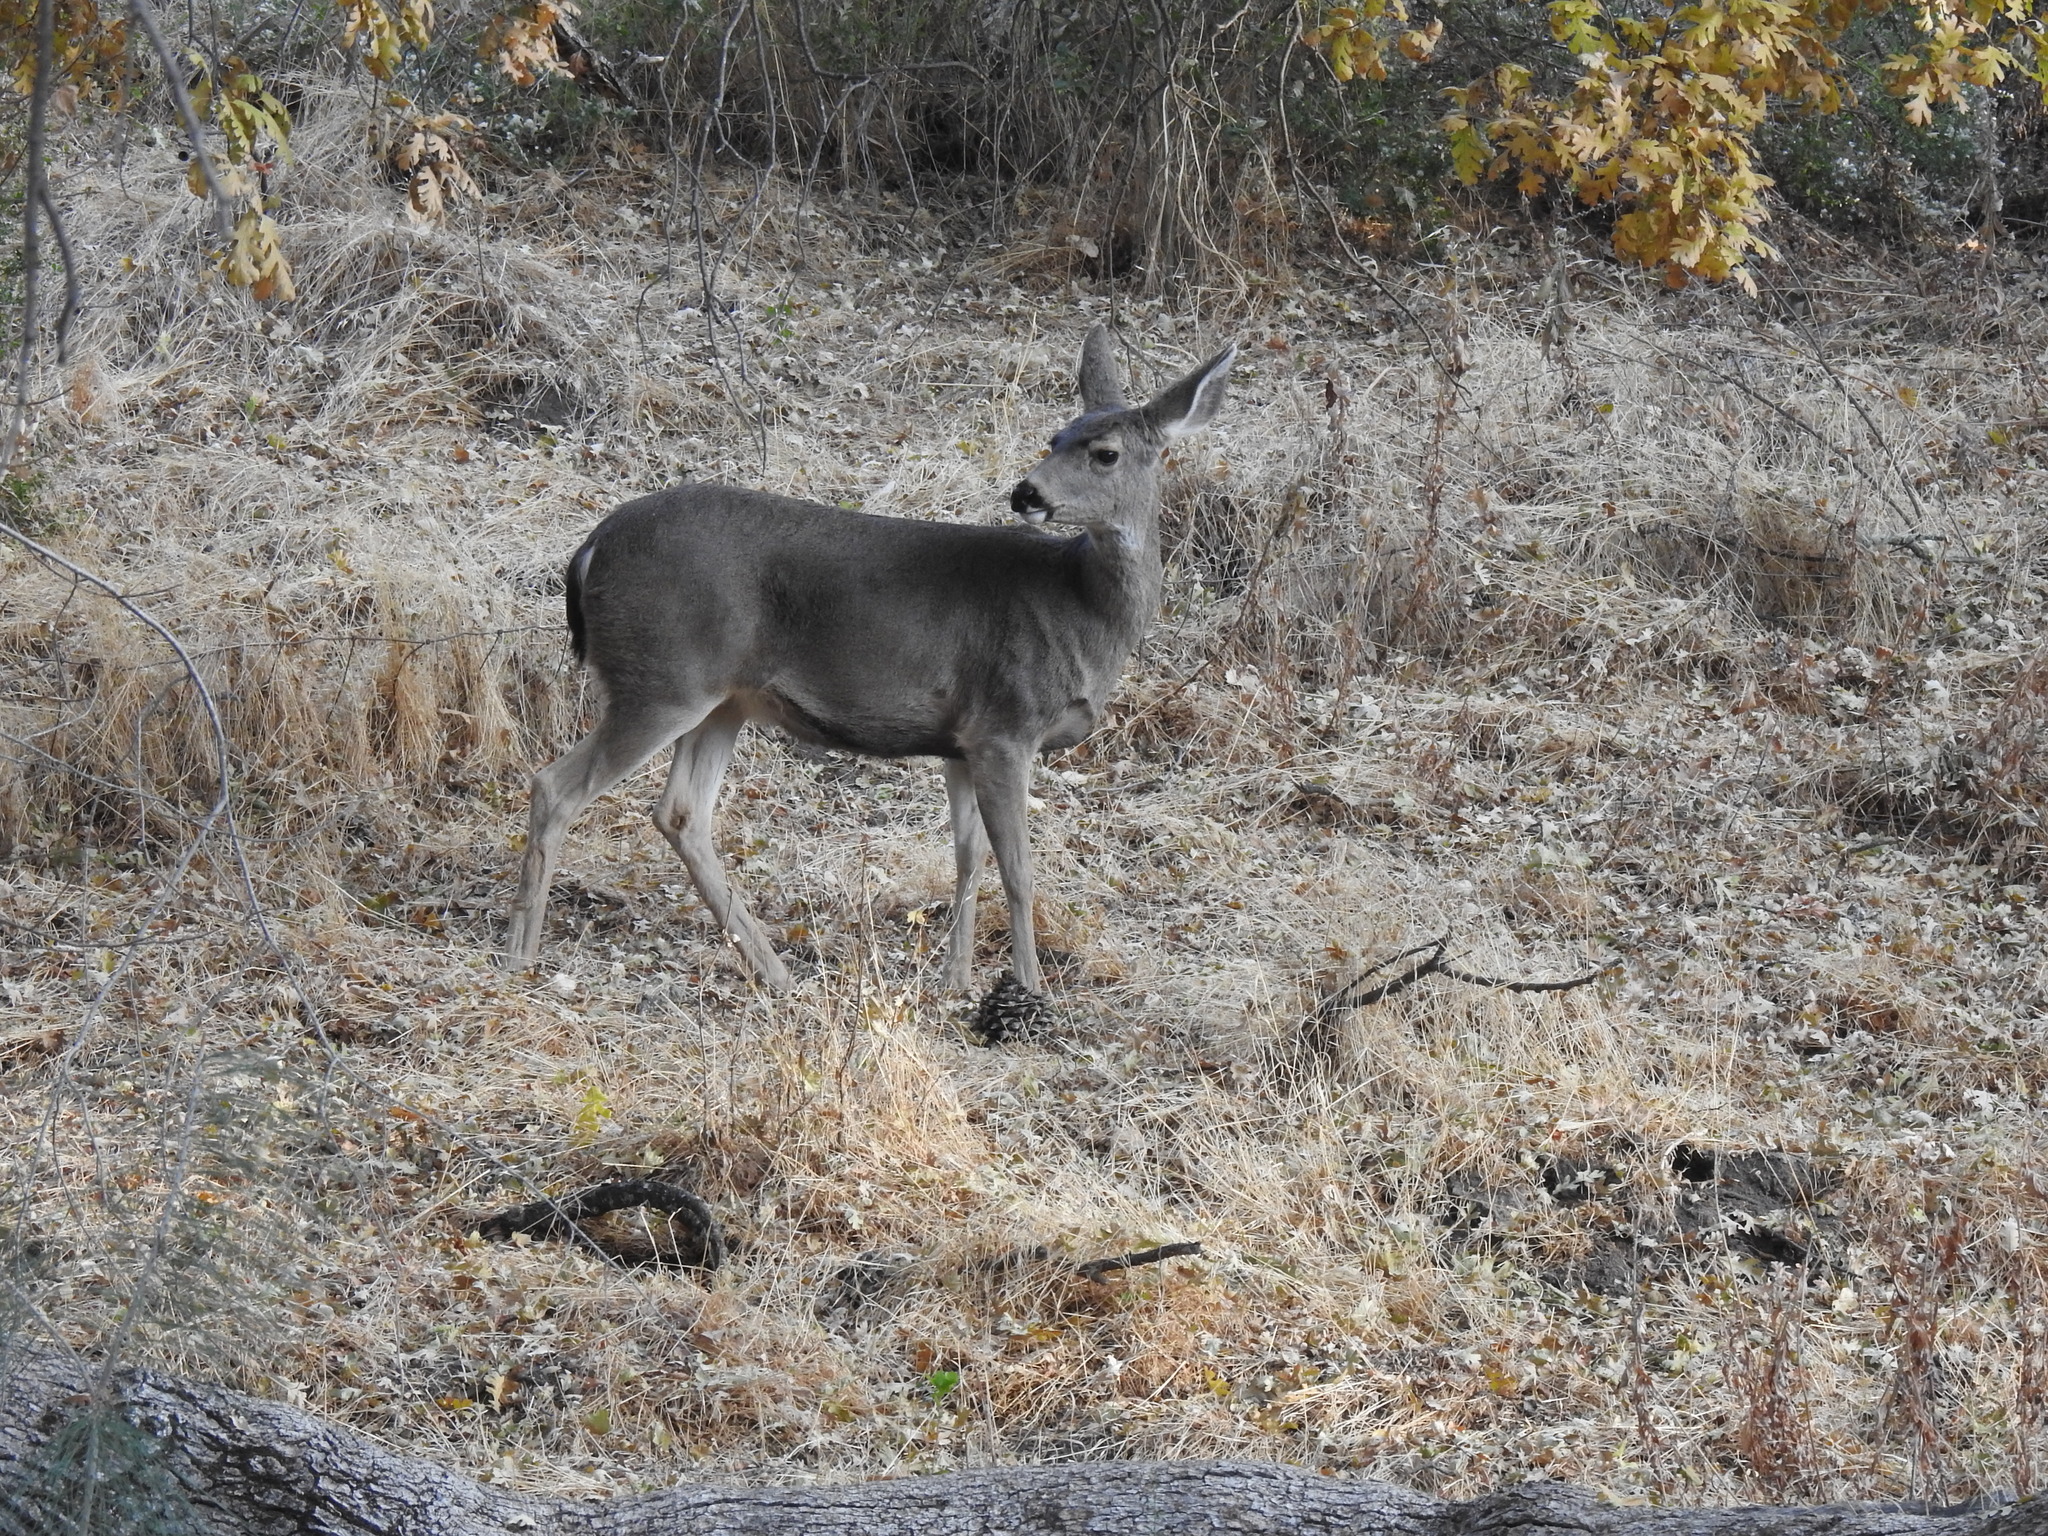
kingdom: Animalia
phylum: Chordata
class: Mammalia
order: Artiodactyla
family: Cervidae
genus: Odocoileus
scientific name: Odocoileus hemionus
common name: Mule deer
